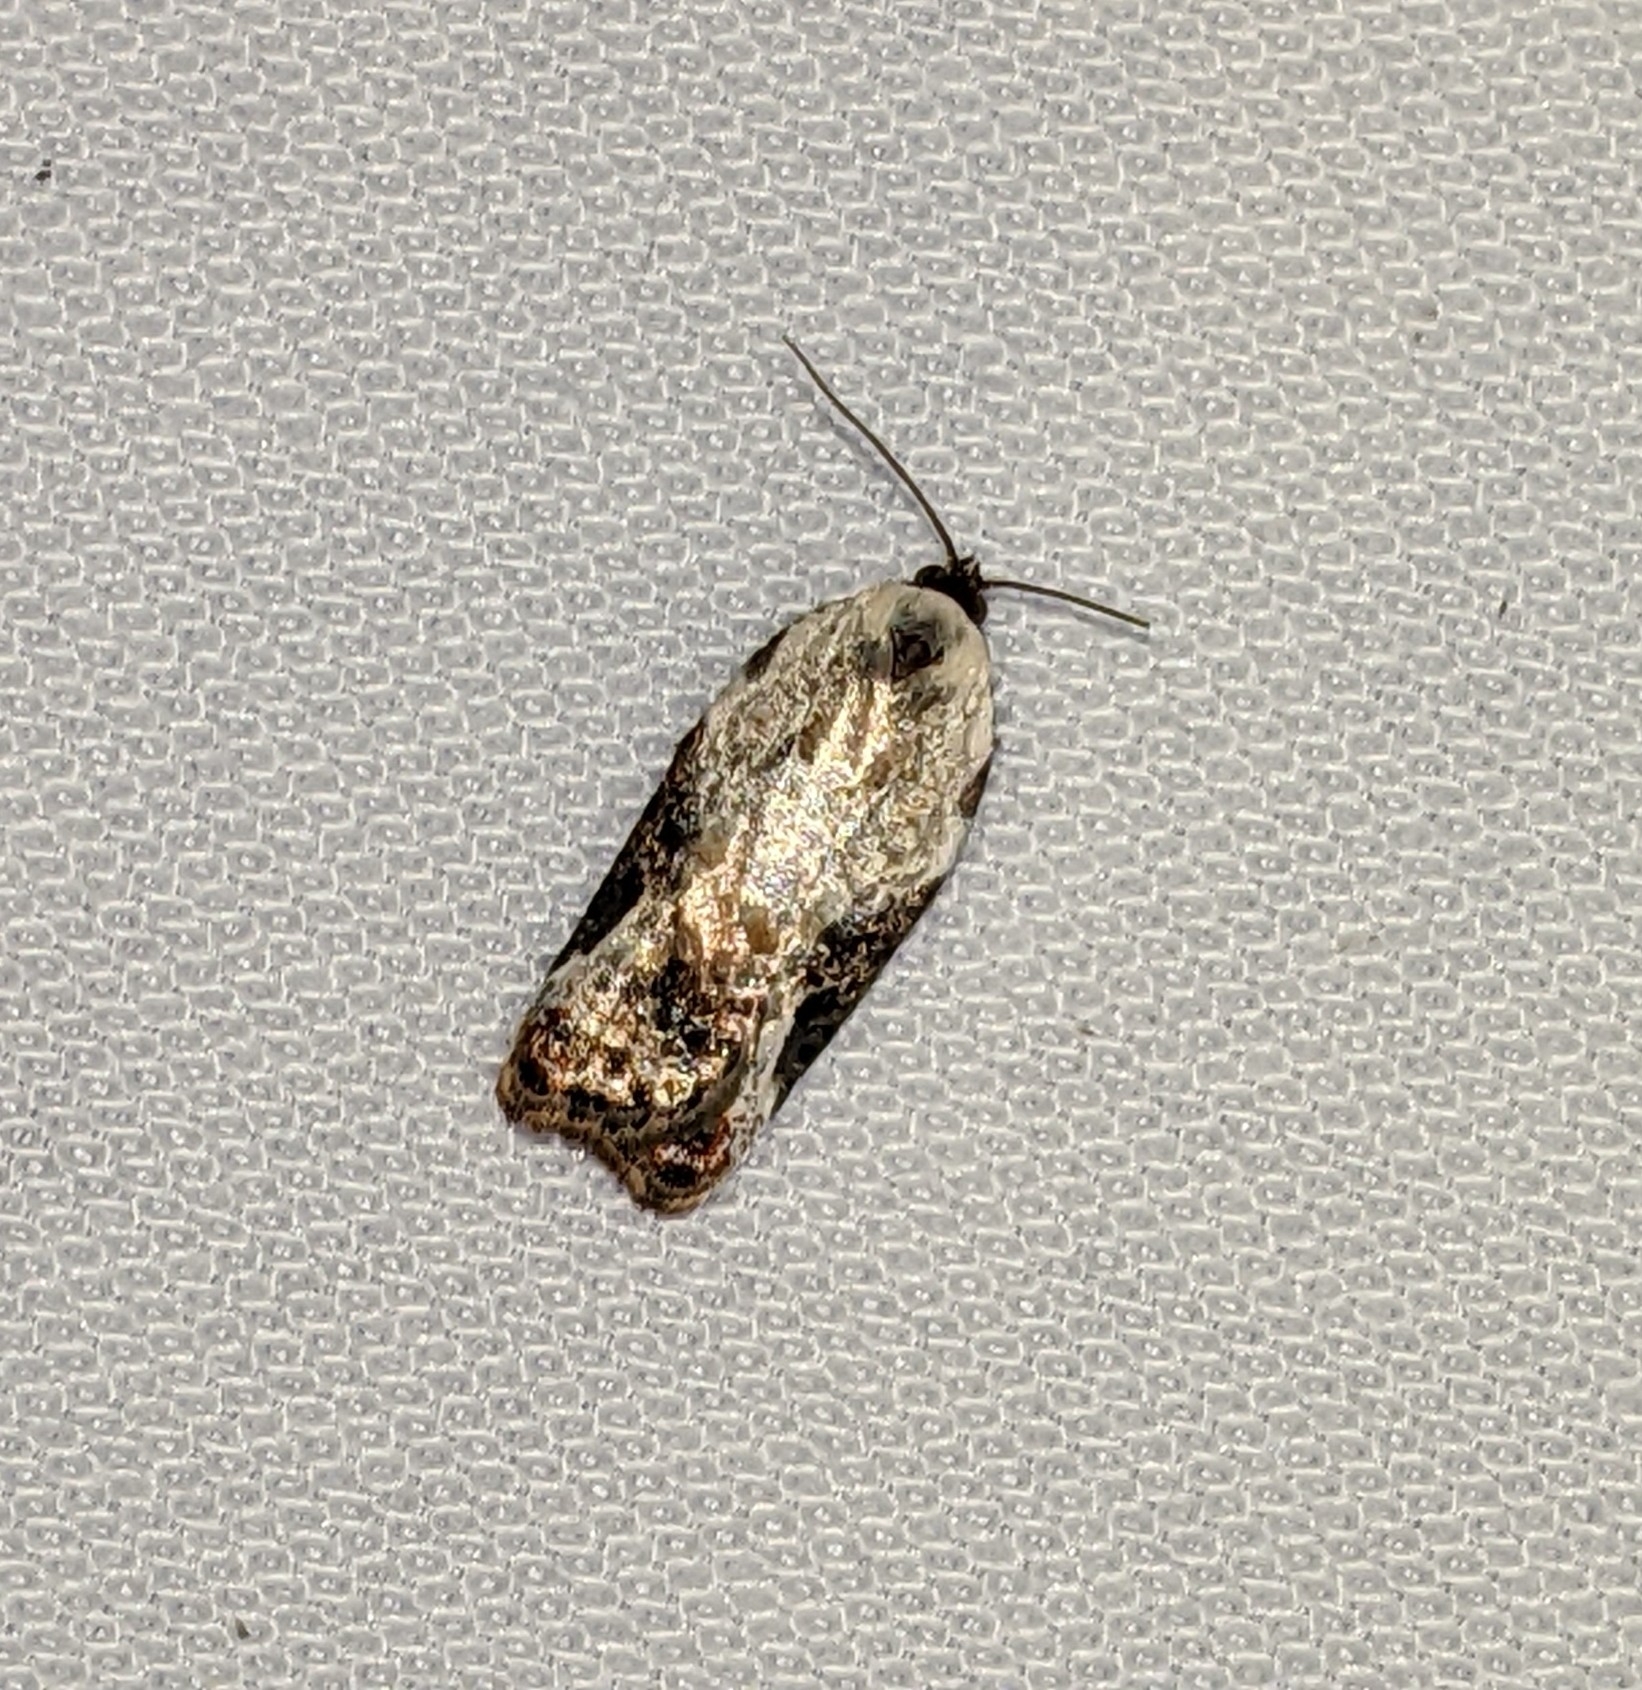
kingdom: Animalia
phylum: Arthropoda
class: Insecta
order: Lepidoptera
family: Tortricidae
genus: Acleris
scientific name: Acleris nivisellana
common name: Snowy-shouldered acleris moth
